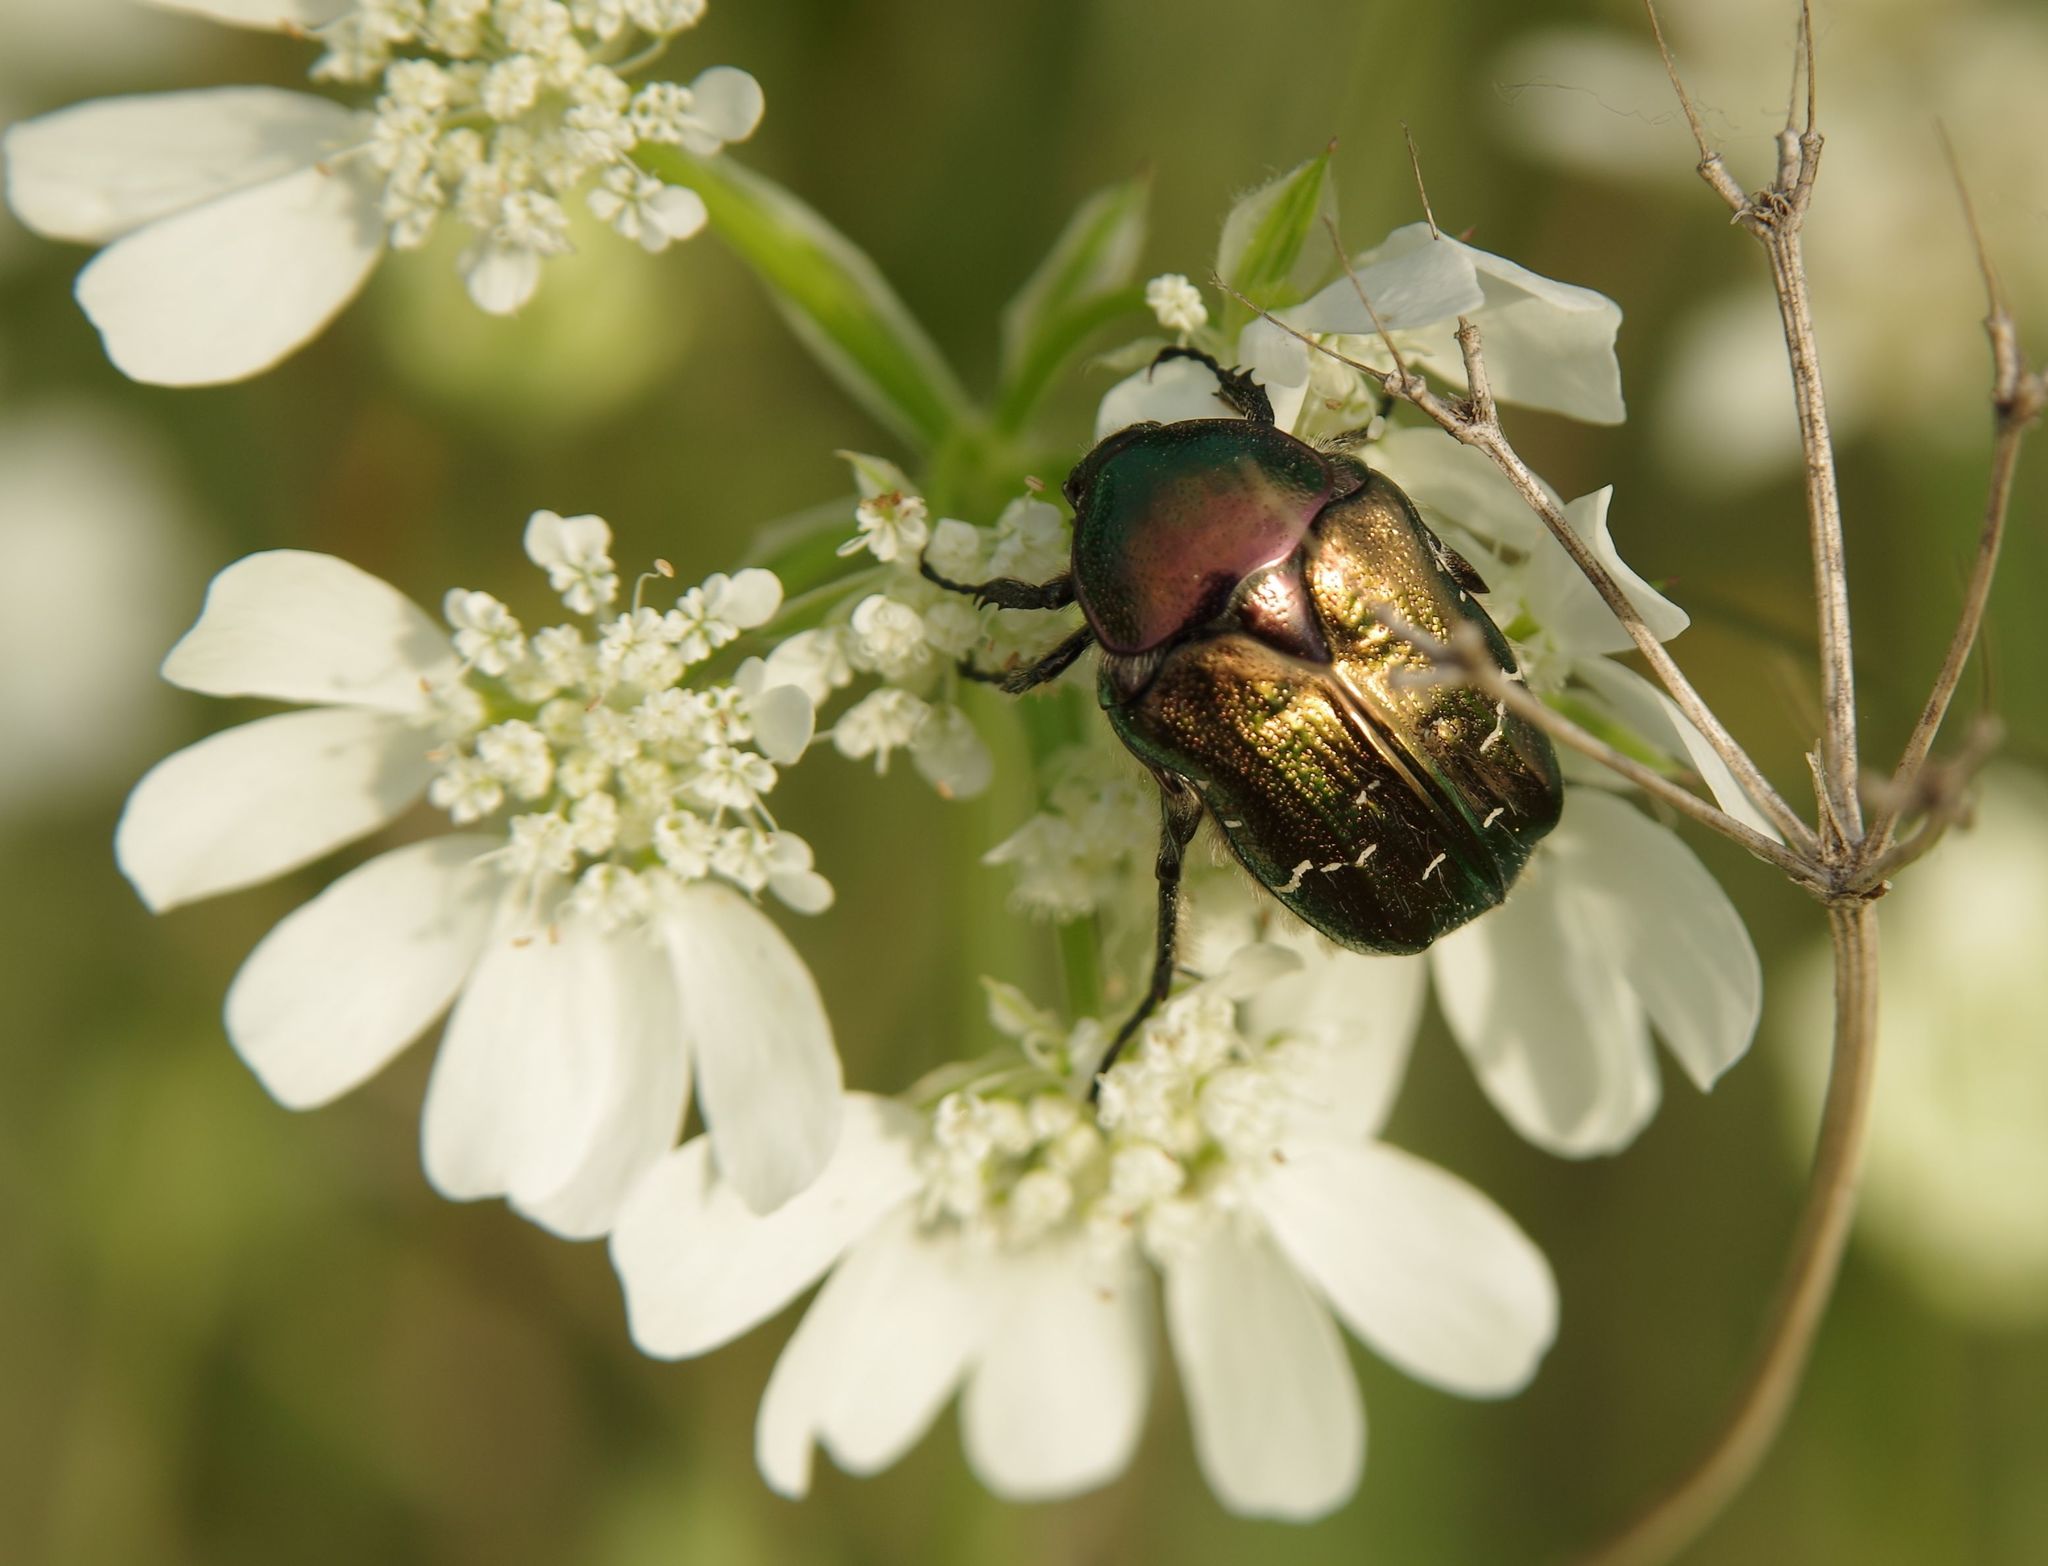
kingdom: Animalia
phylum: Arthropoda
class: Insecta
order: Coleoptera
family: Scarabaeidae
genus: Cetonia
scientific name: Cetonia aurata
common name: Rose chafer
